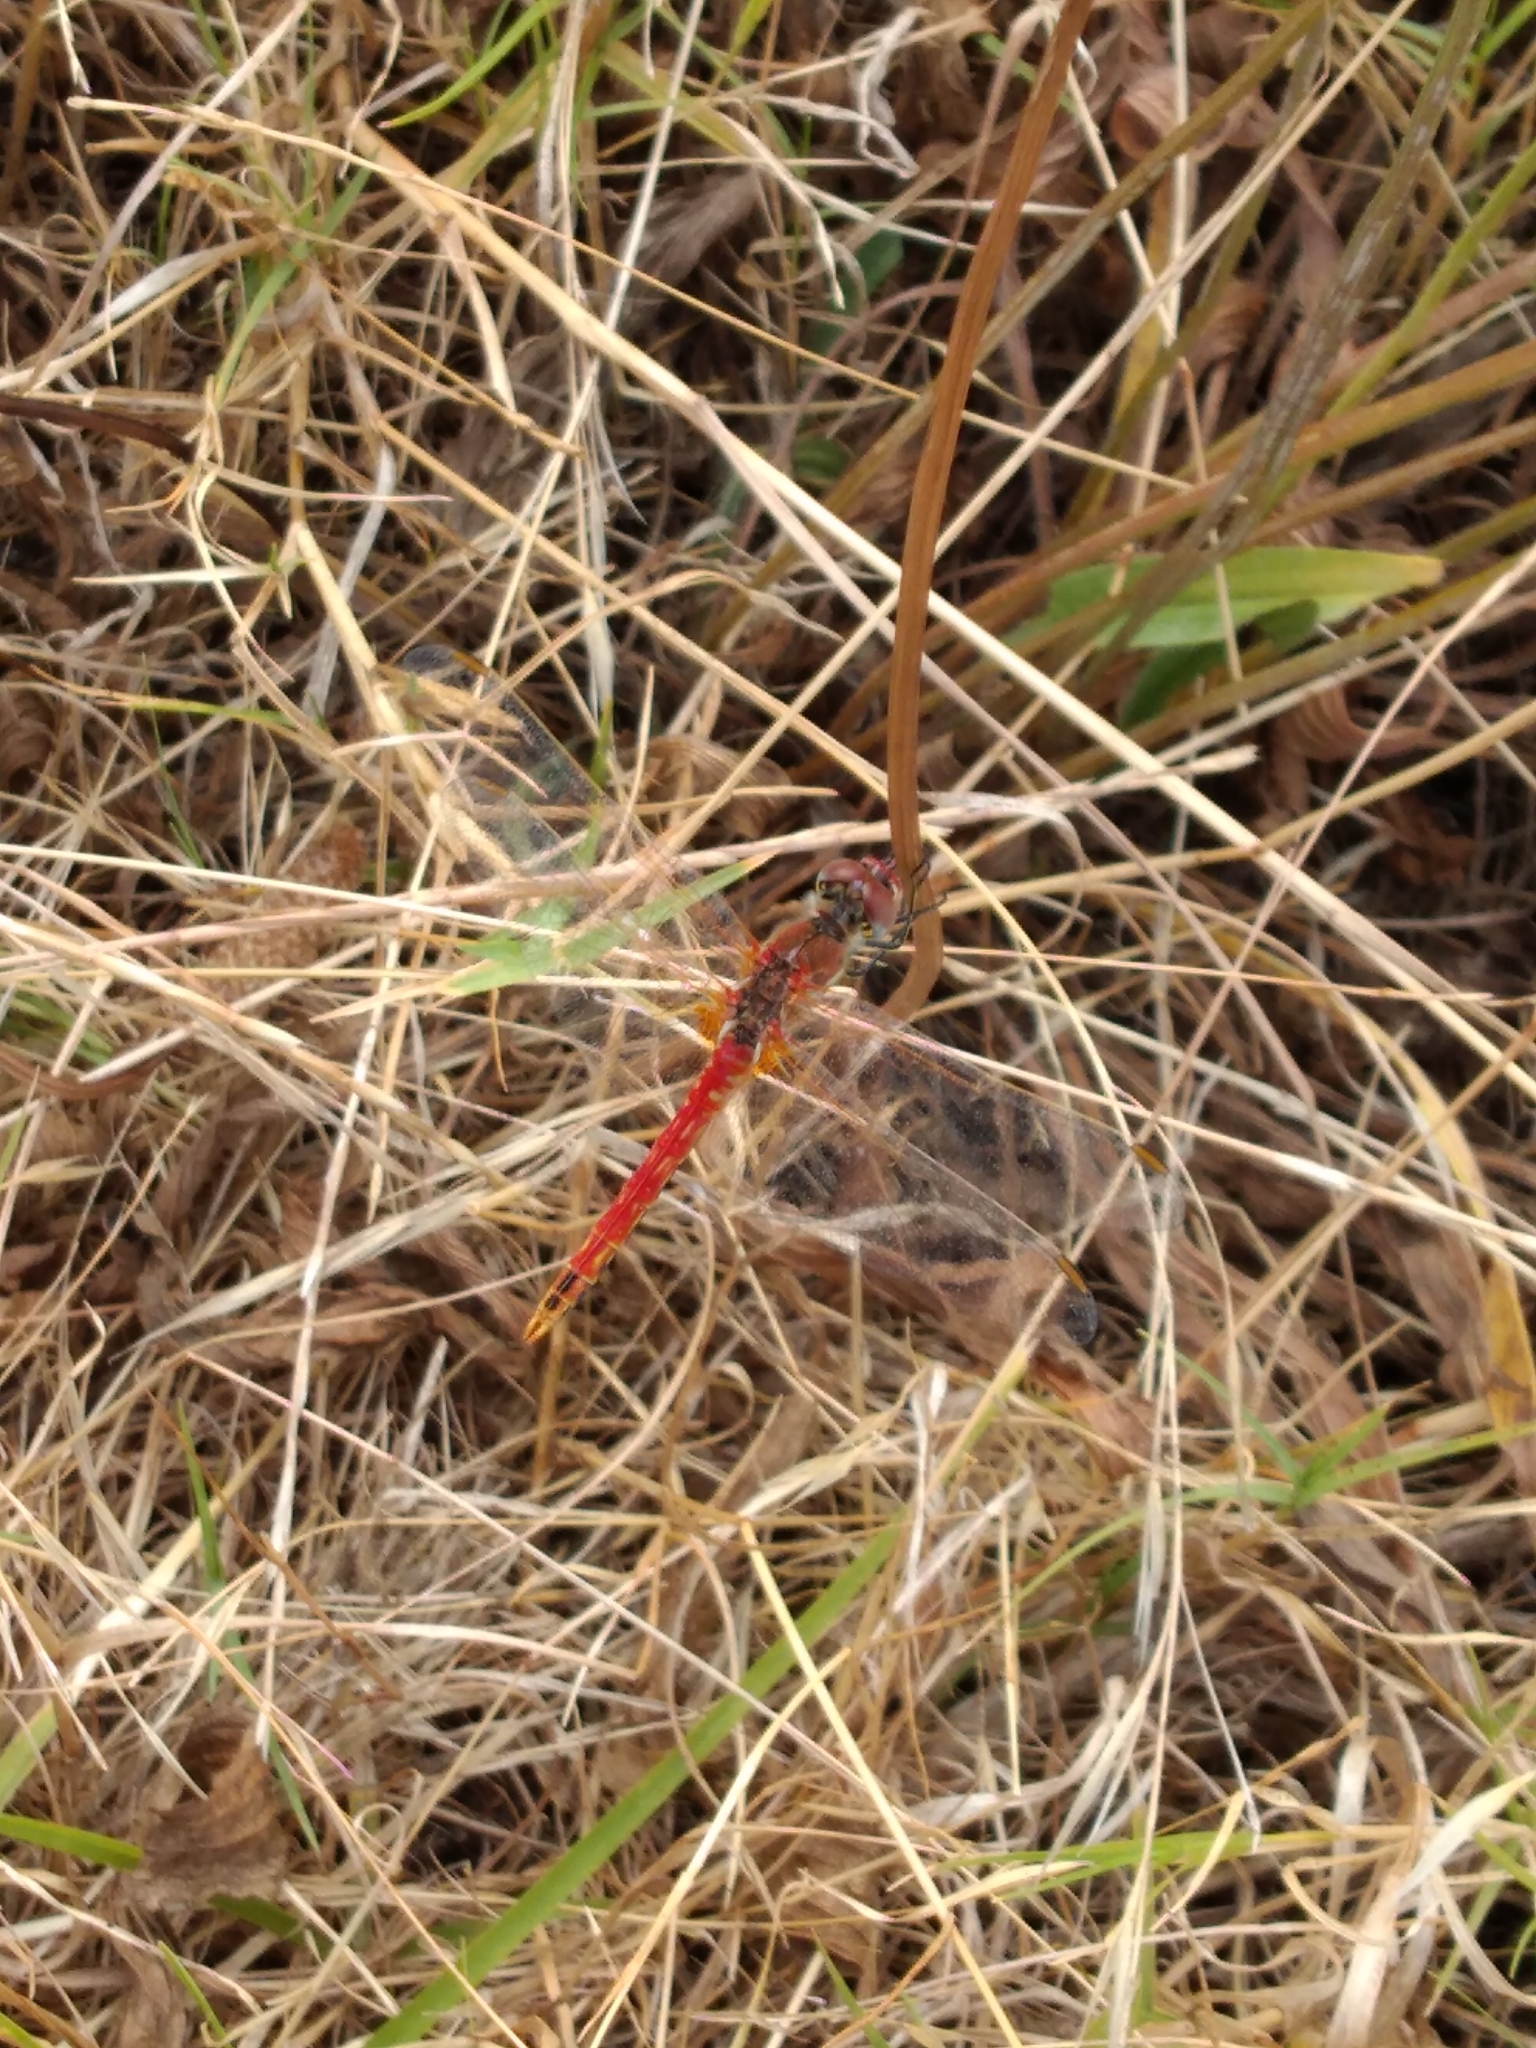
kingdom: Animalia
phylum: Arthropoda
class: Insecta
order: Odonata
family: Libellulidae
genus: Sympetrum
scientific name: Sympetrum fonscolombii
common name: Red-veined darter
